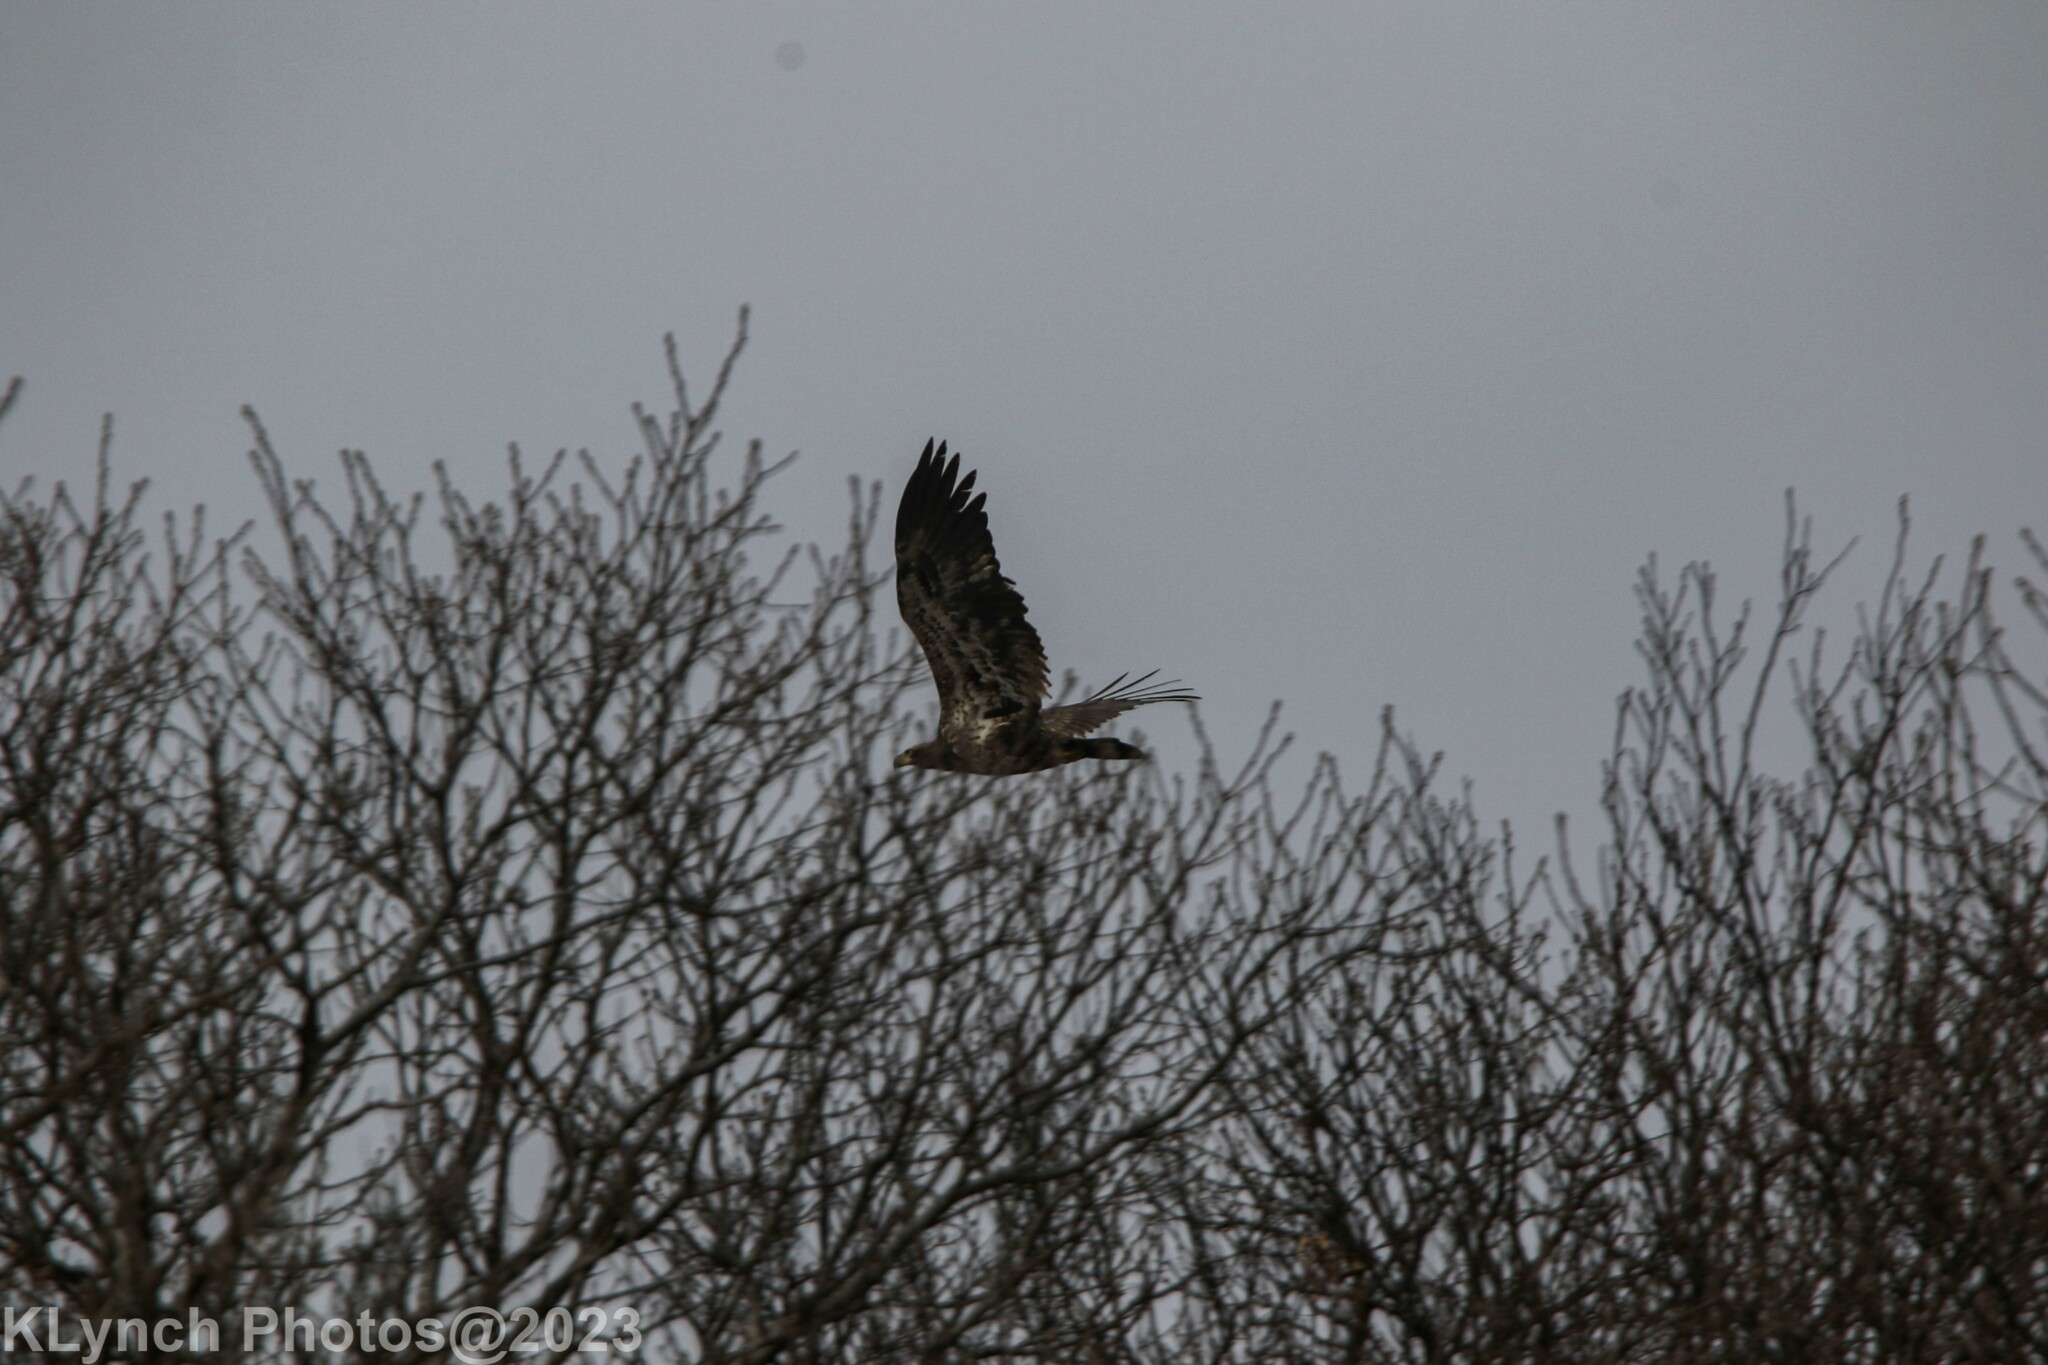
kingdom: Animalia
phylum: Chordata
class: Aves
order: Accipitriformes
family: Accipitridae
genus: Haliaeetus
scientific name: Haliaeetus leucocephalus
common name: Bald eagle
